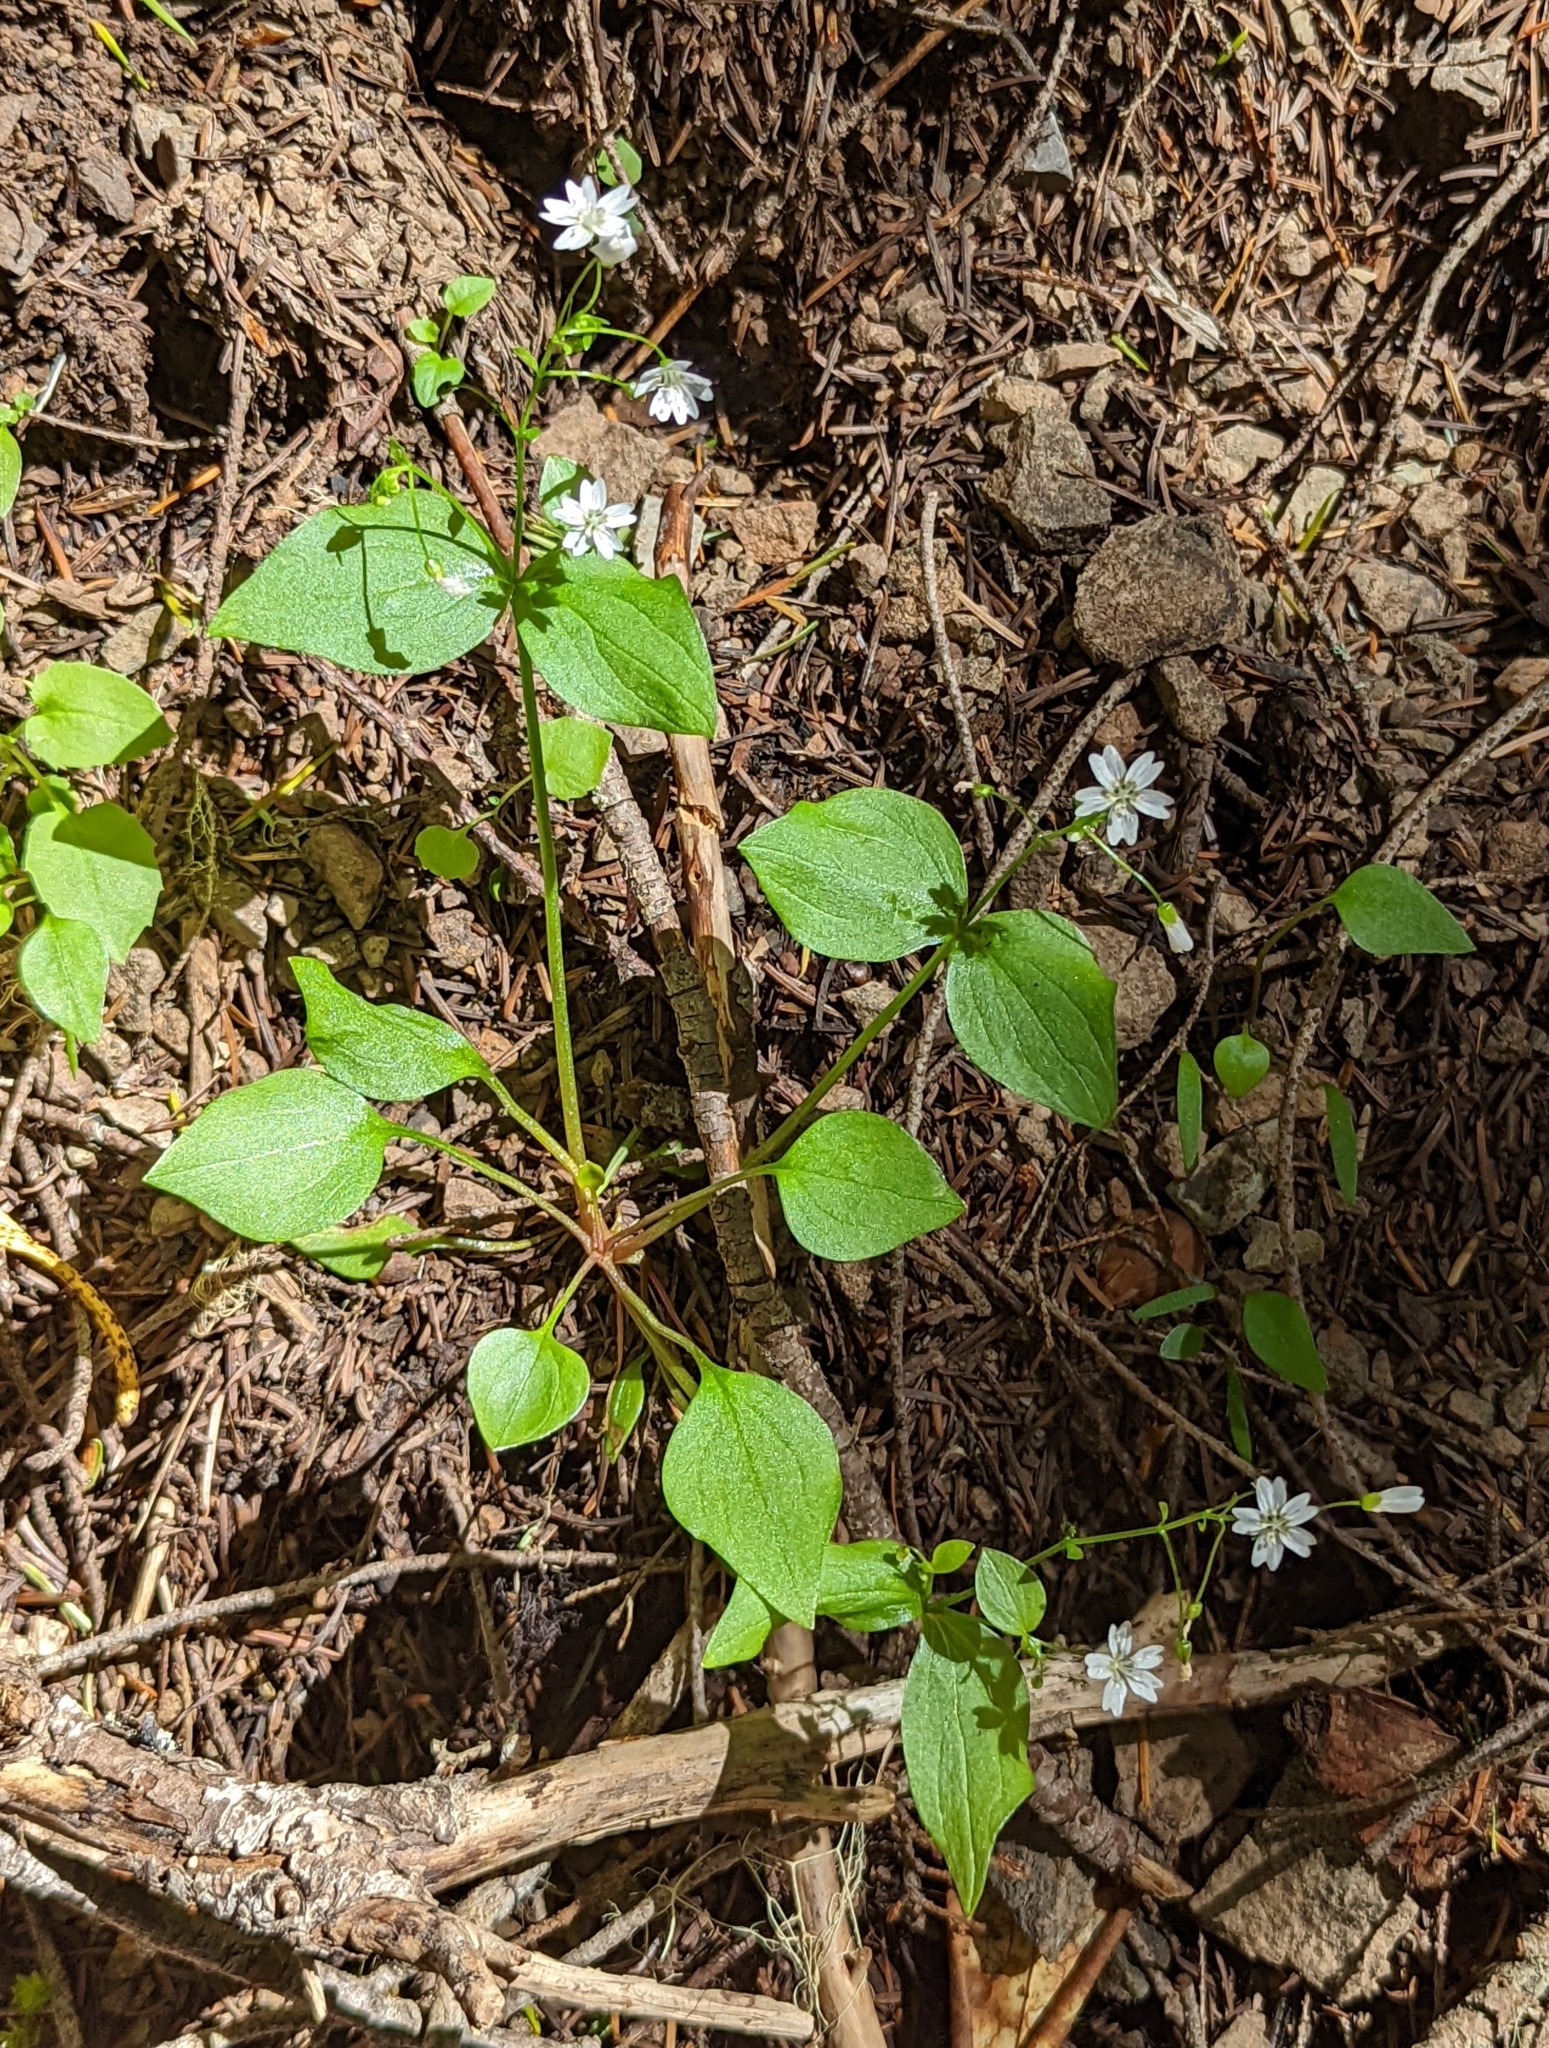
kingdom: Plantae
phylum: Tracheophyta
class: Magnoliopsida
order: Caryophyllales
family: Montiaceae
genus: Claytonia
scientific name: Claytonia sibirica
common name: Pink purslane
